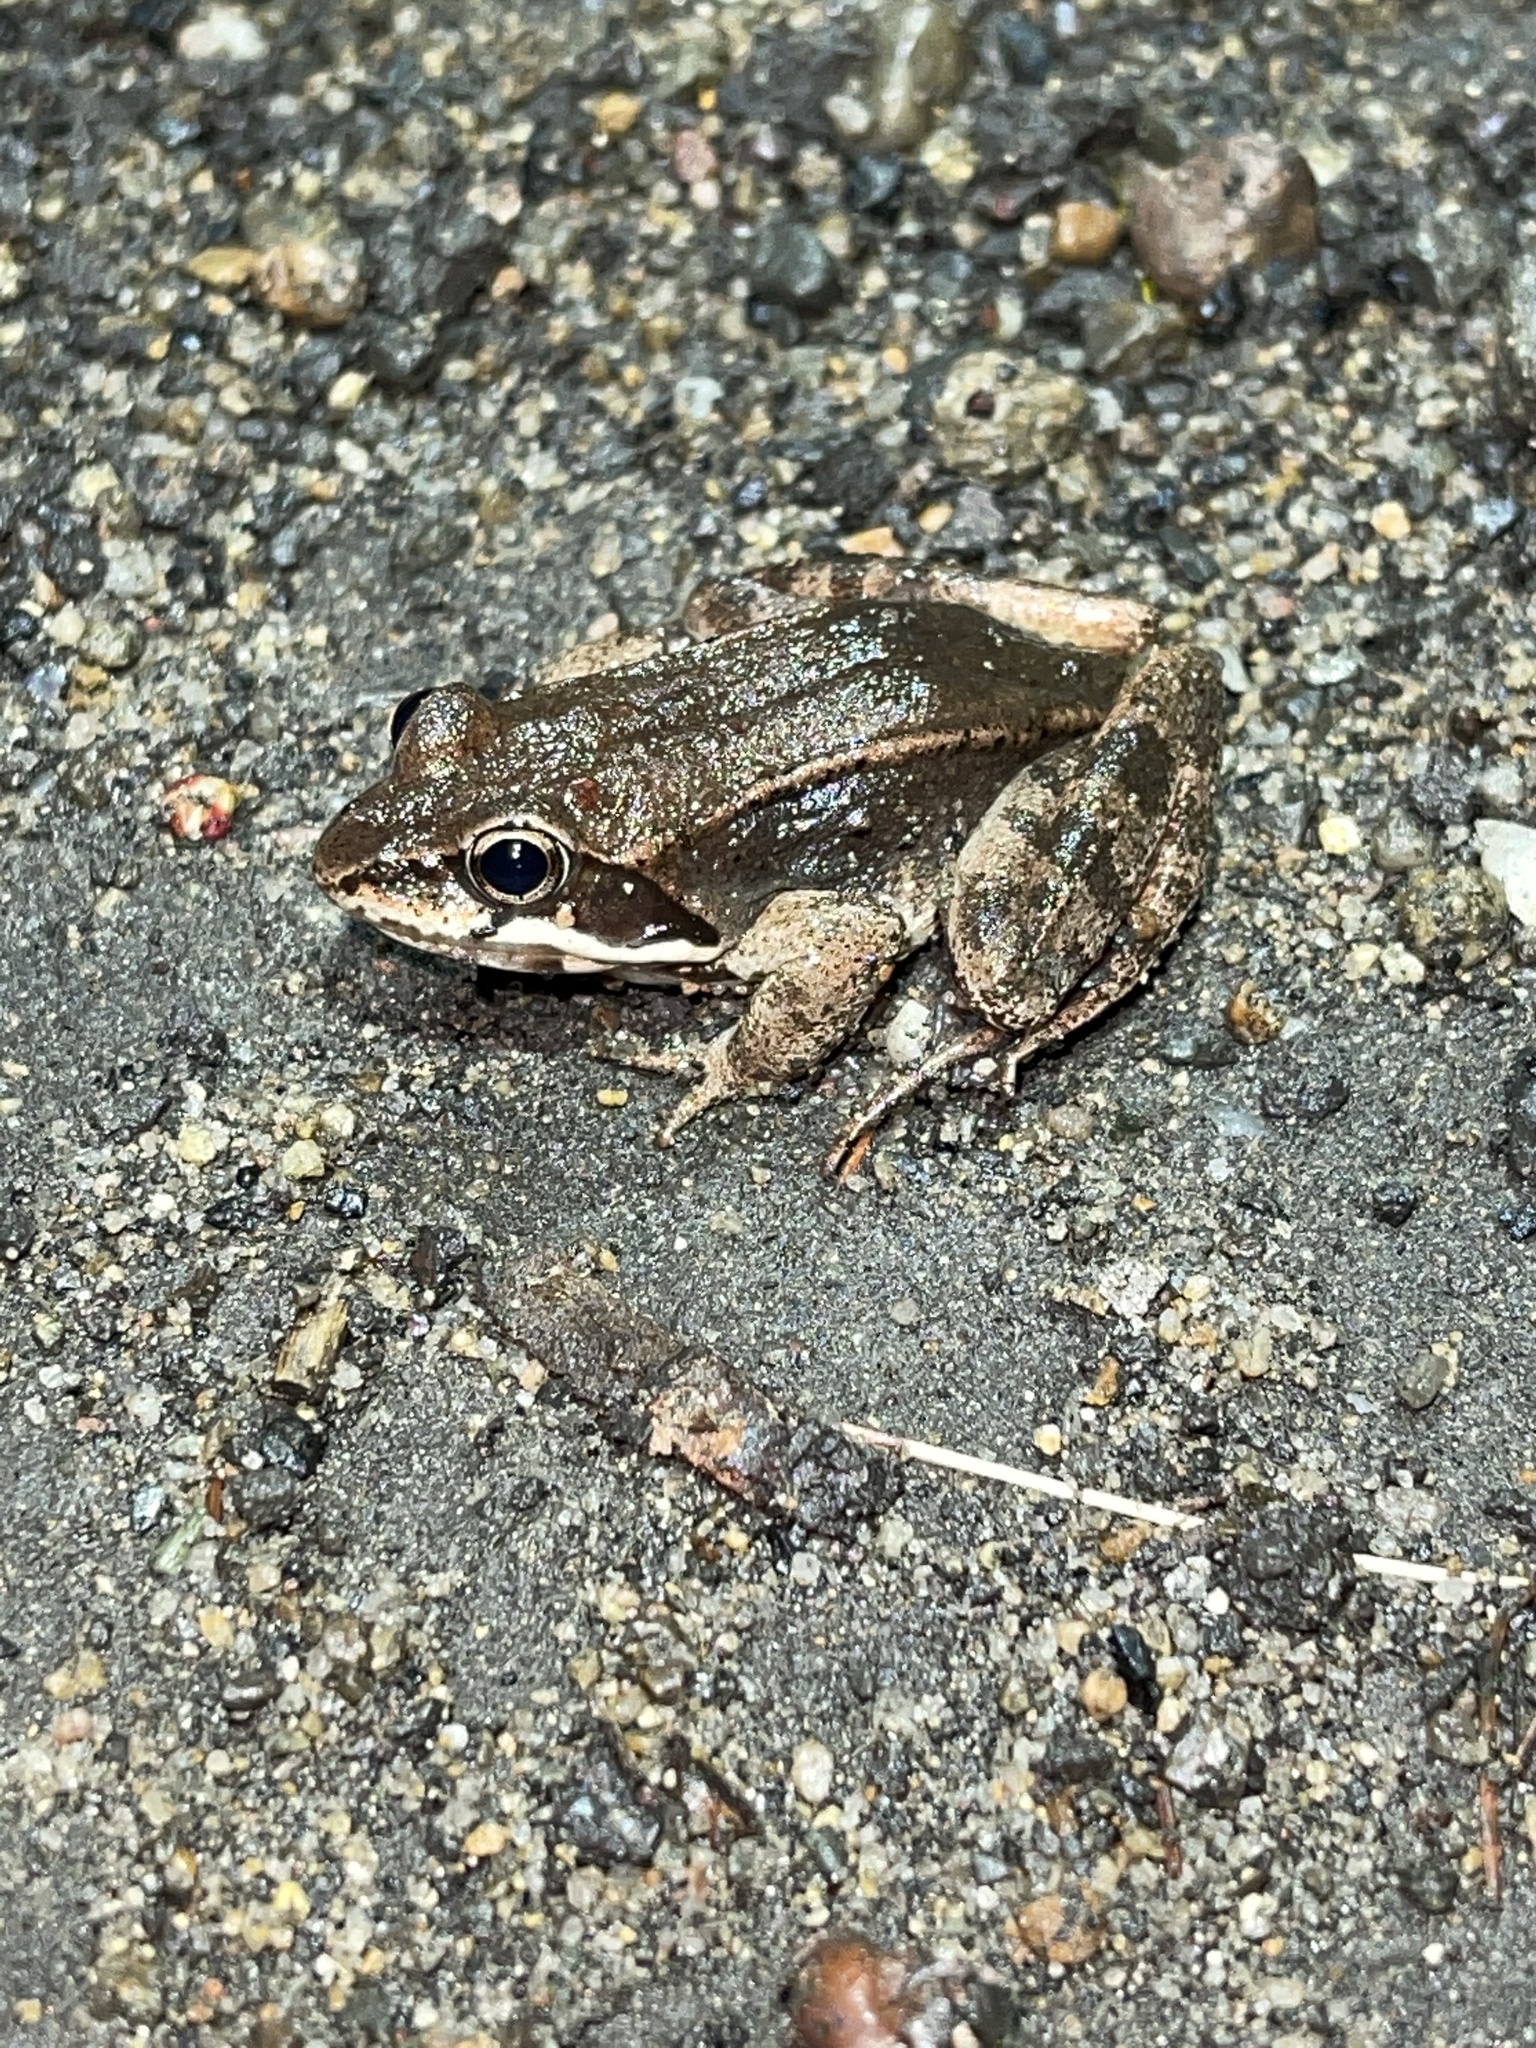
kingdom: Animalia
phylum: Chordata
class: Amphibia
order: Anura
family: Ranidae
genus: Lithobates
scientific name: Lithobates sylvaticus
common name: Wood frog
